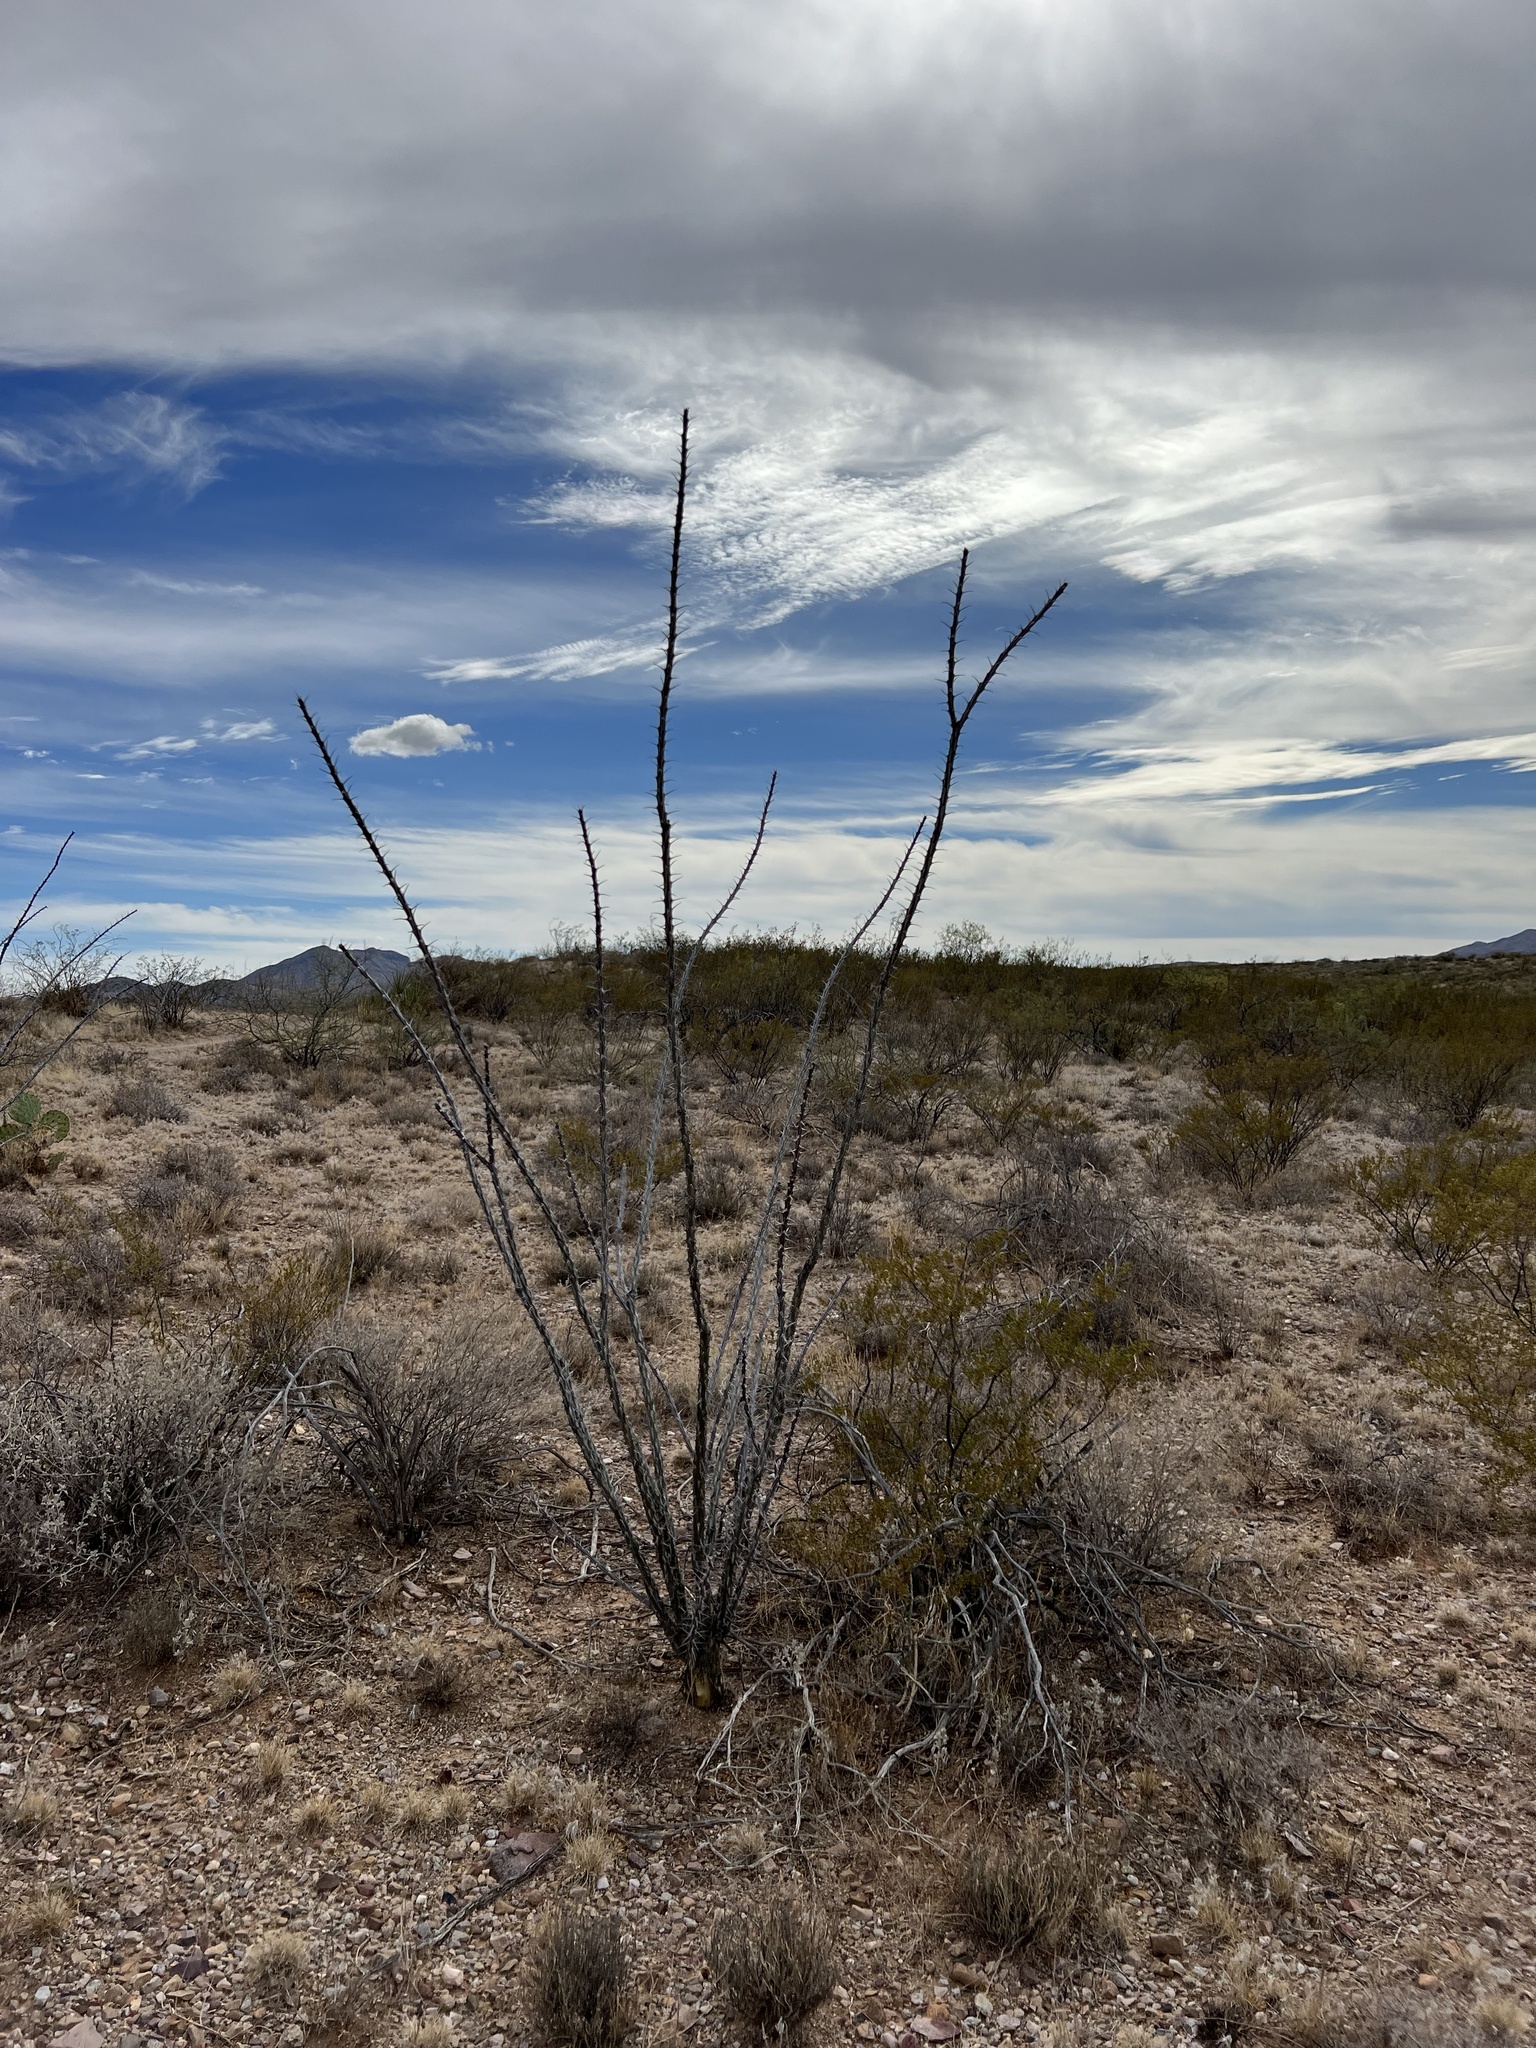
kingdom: Plantae
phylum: Tracheophyta
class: Magnoliopsida
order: Ericales
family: Fouquieriaceae
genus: Fouquieria
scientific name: Fouquieria splendens
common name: Vine-cactus
